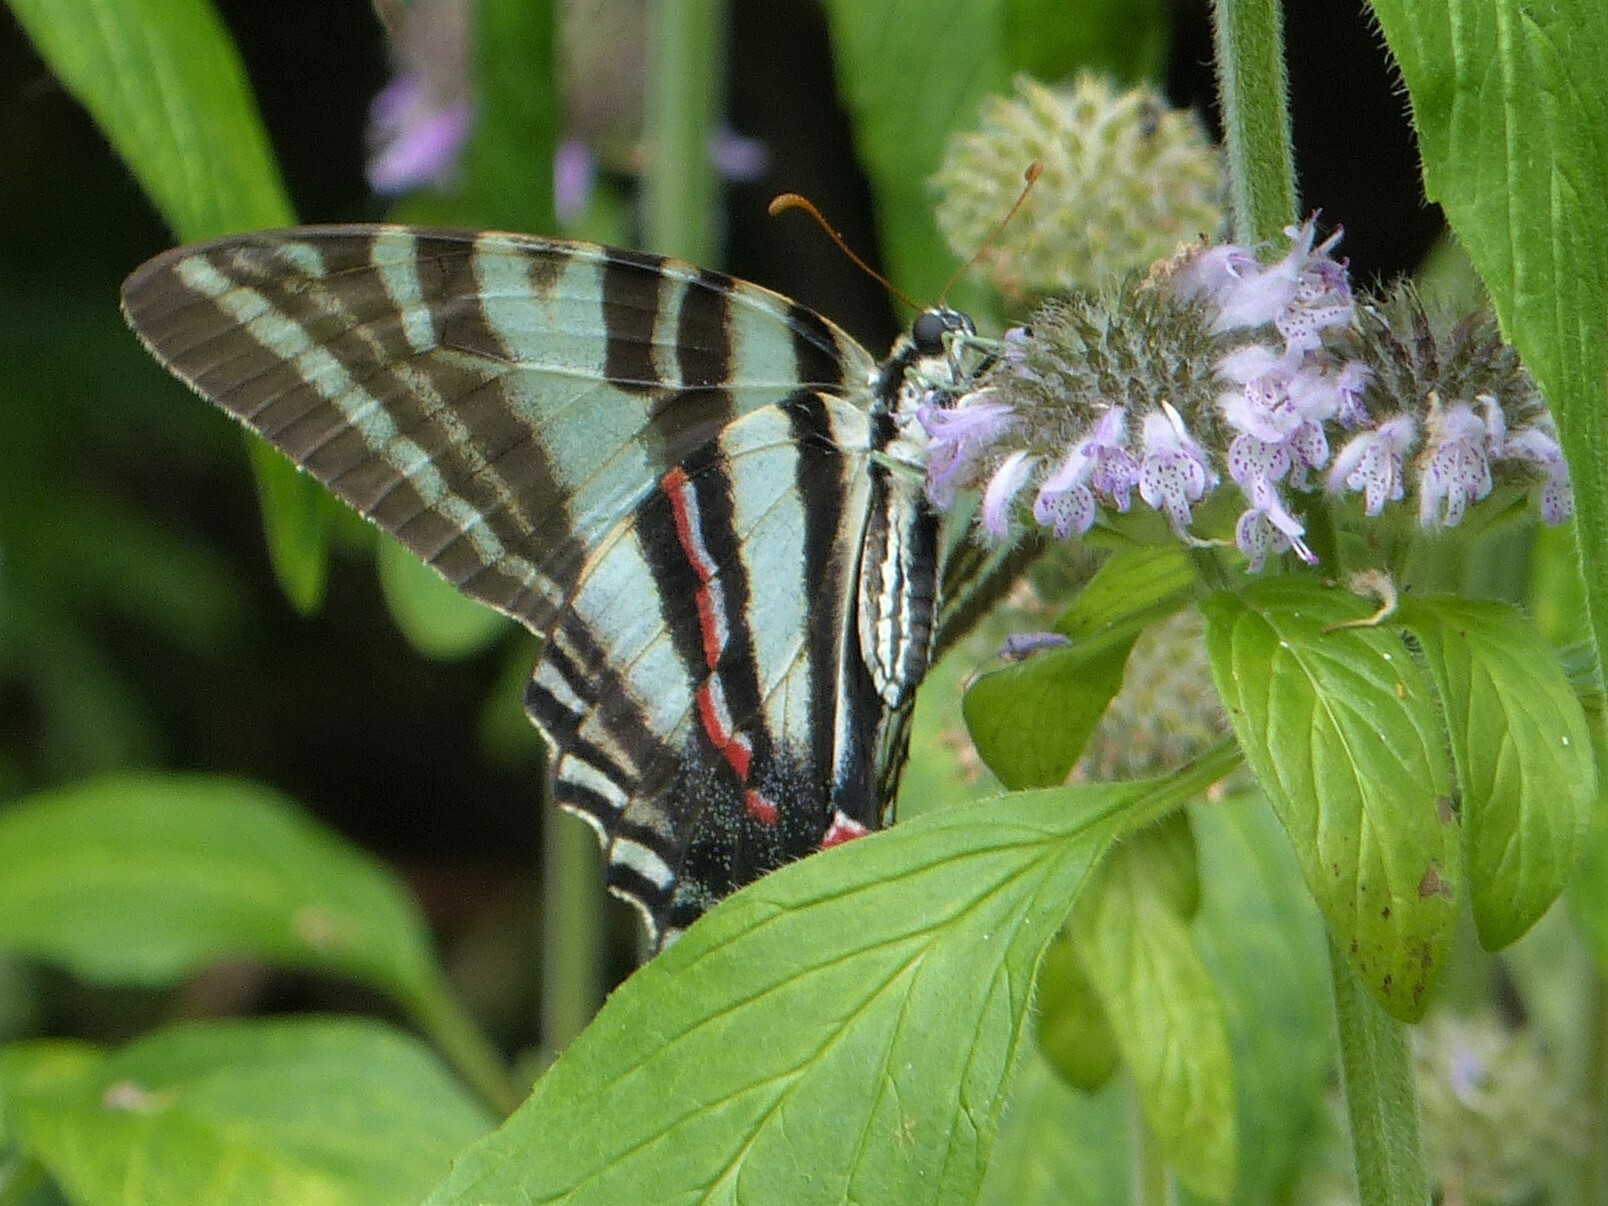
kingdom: Animalia
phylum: Arthropoda
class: Insecta
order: Lepidoptera
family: Papilionidae
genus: Protographium
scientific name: Protographium marcellus
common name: Zebra swallowtail
